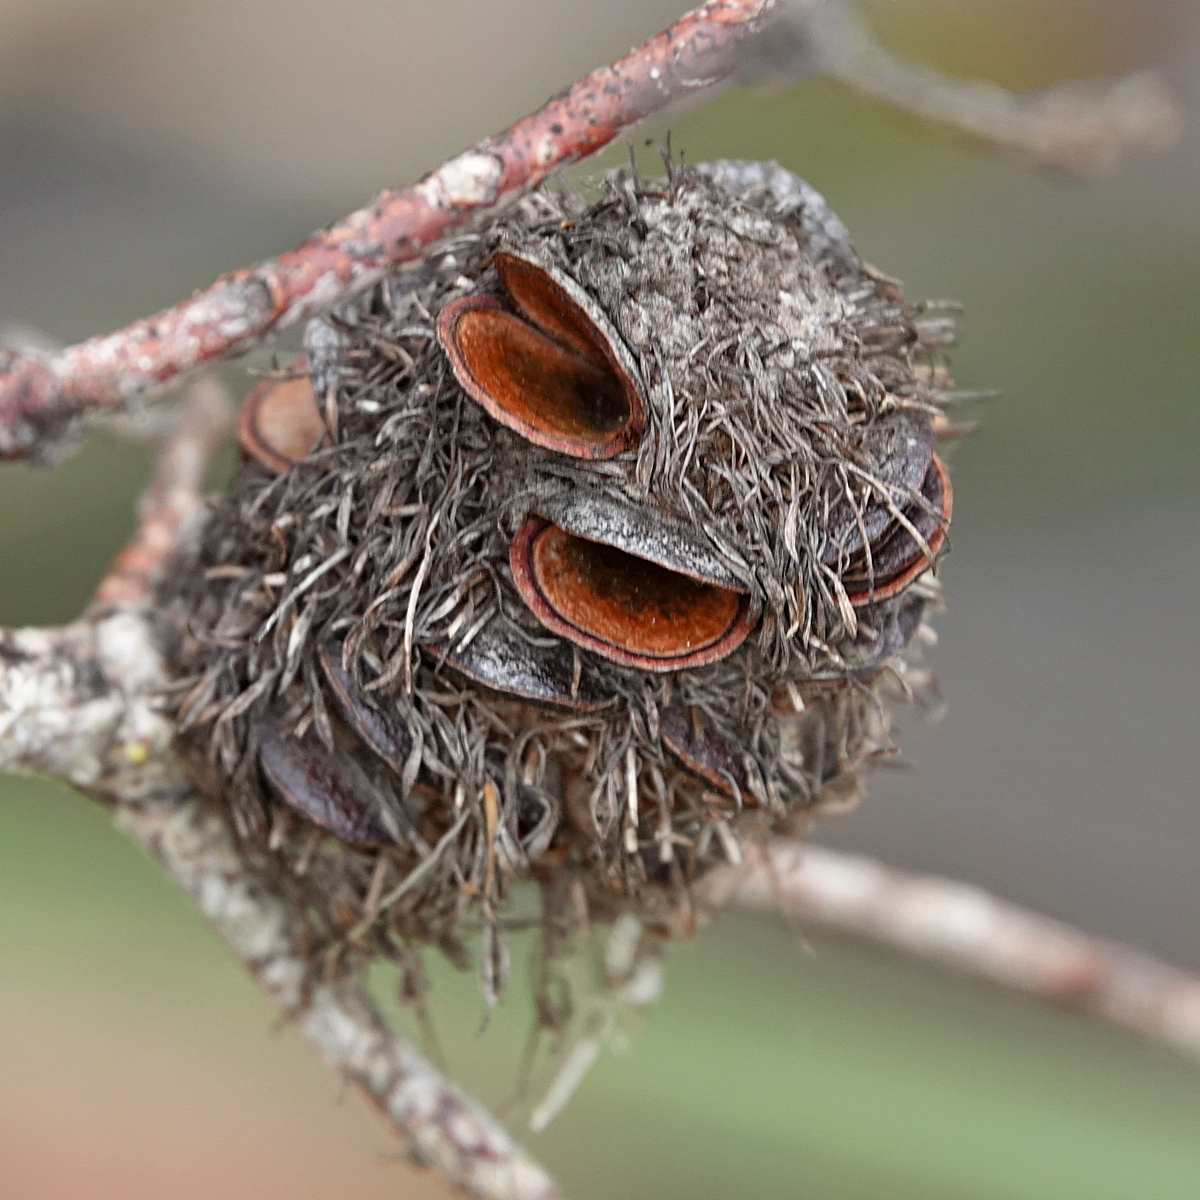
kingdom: Plantae
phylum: Tracheophyta
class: Magnoliopsida
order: Proteales
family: Proteaceae
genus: Banksia
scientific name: Banksia marginata
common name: Silver banksia
